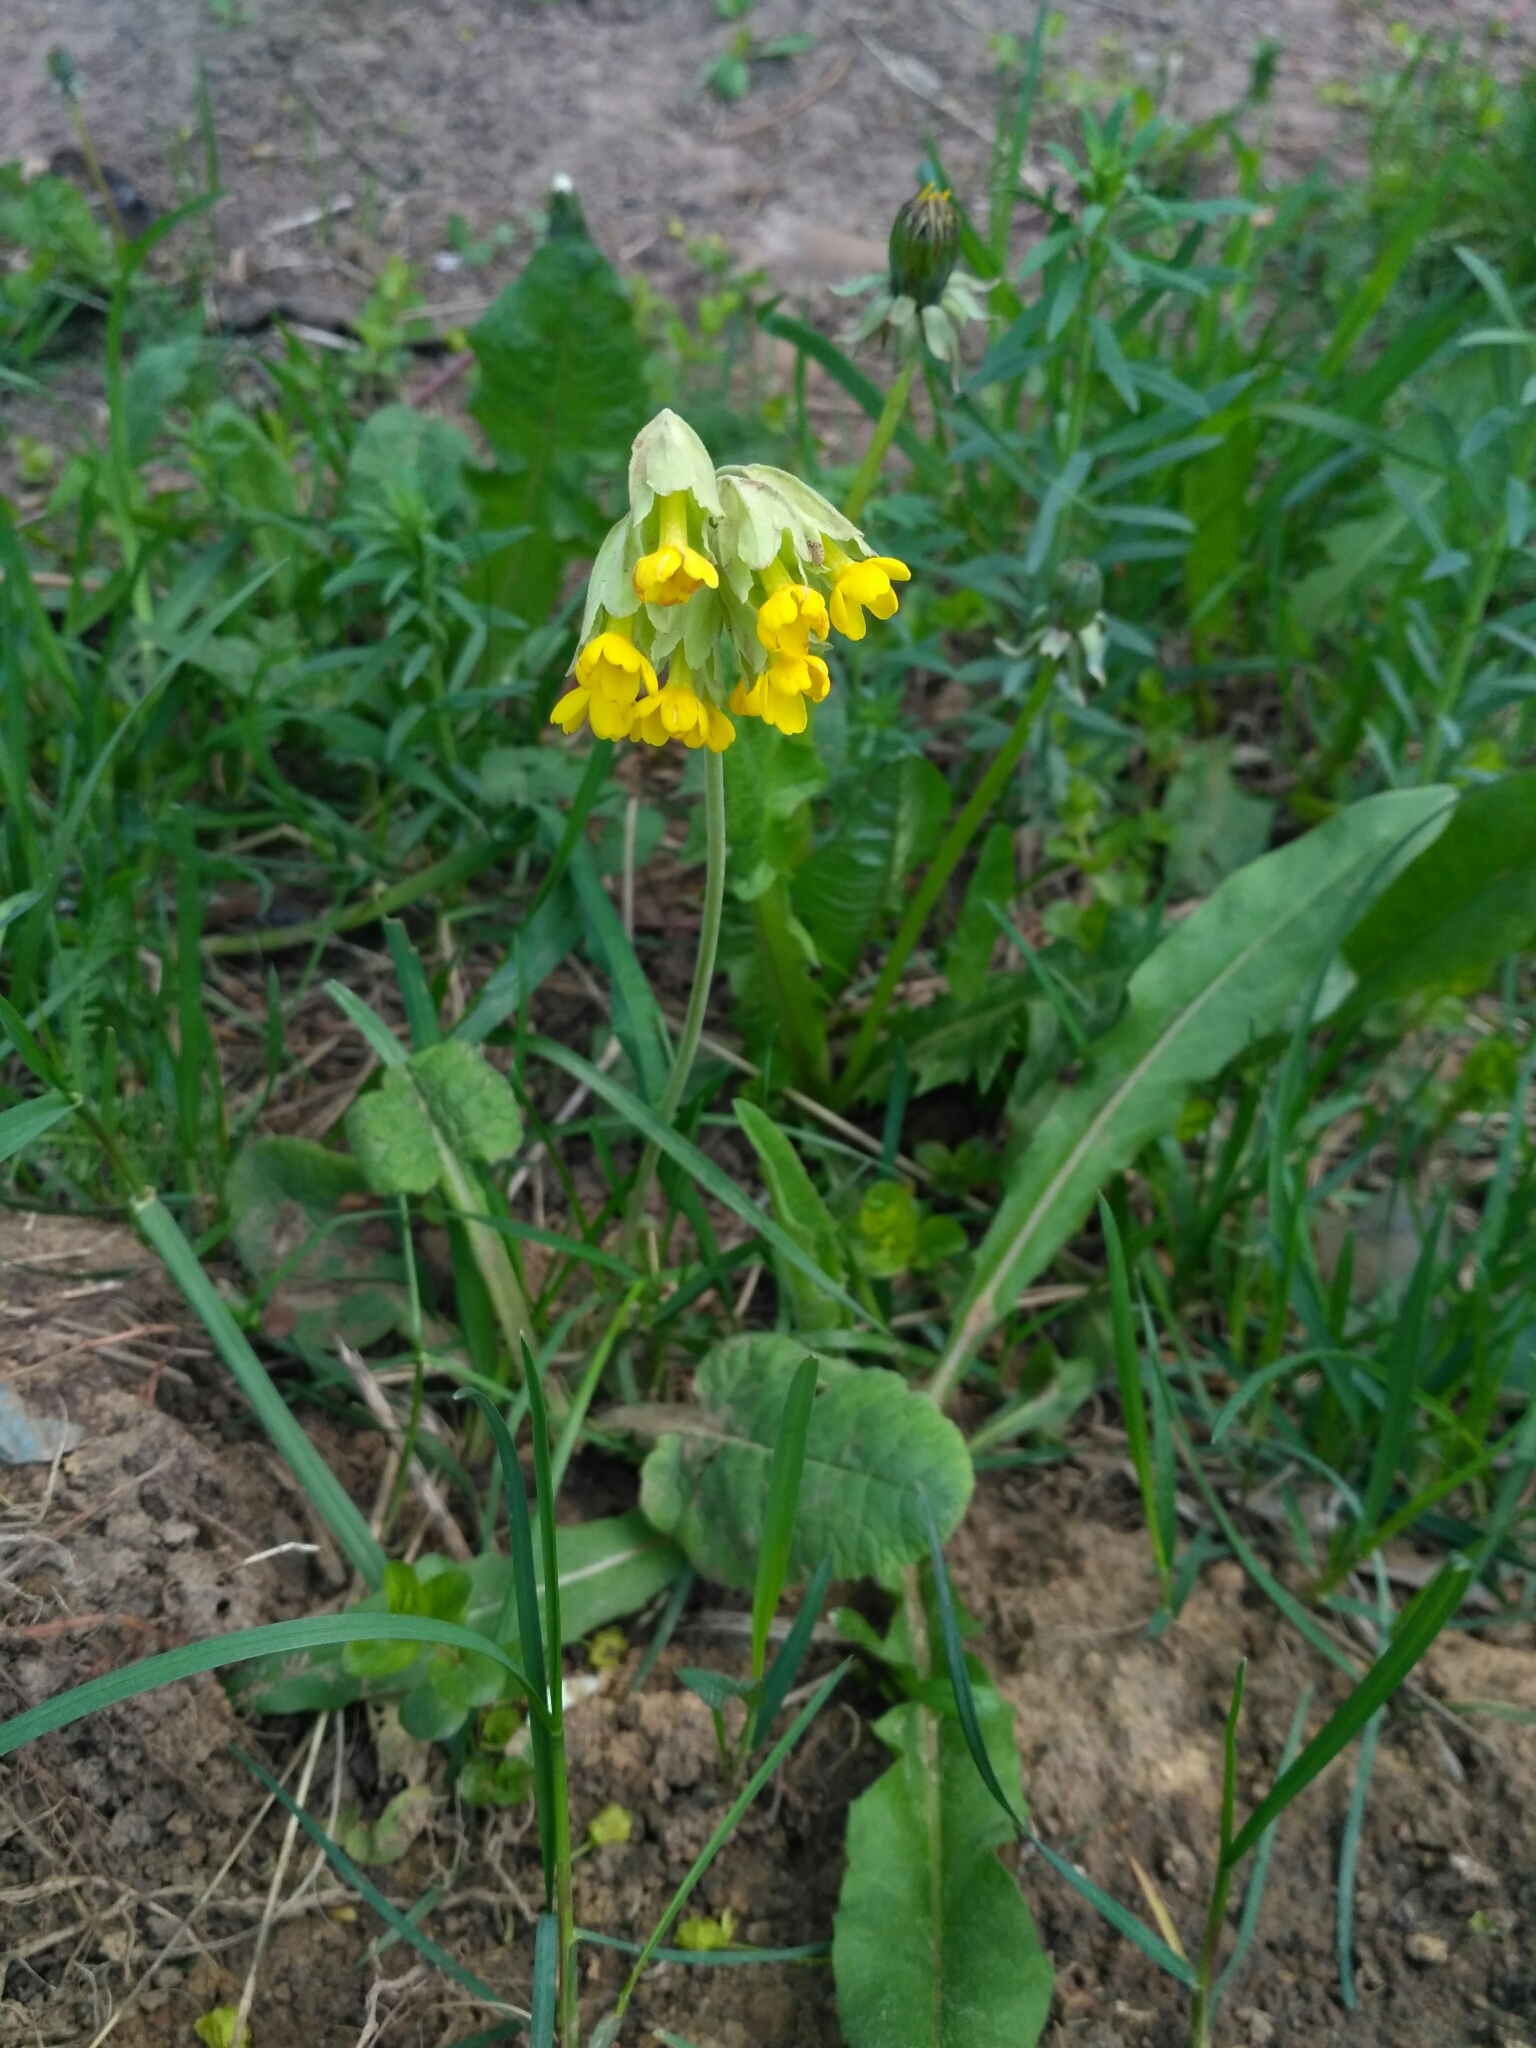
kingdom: Plantae
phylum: Tracheophyta
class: Magnoliopsida
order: Ericales
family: Primulaceae
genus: Primula
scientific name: Primula veris
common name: Cowslip
